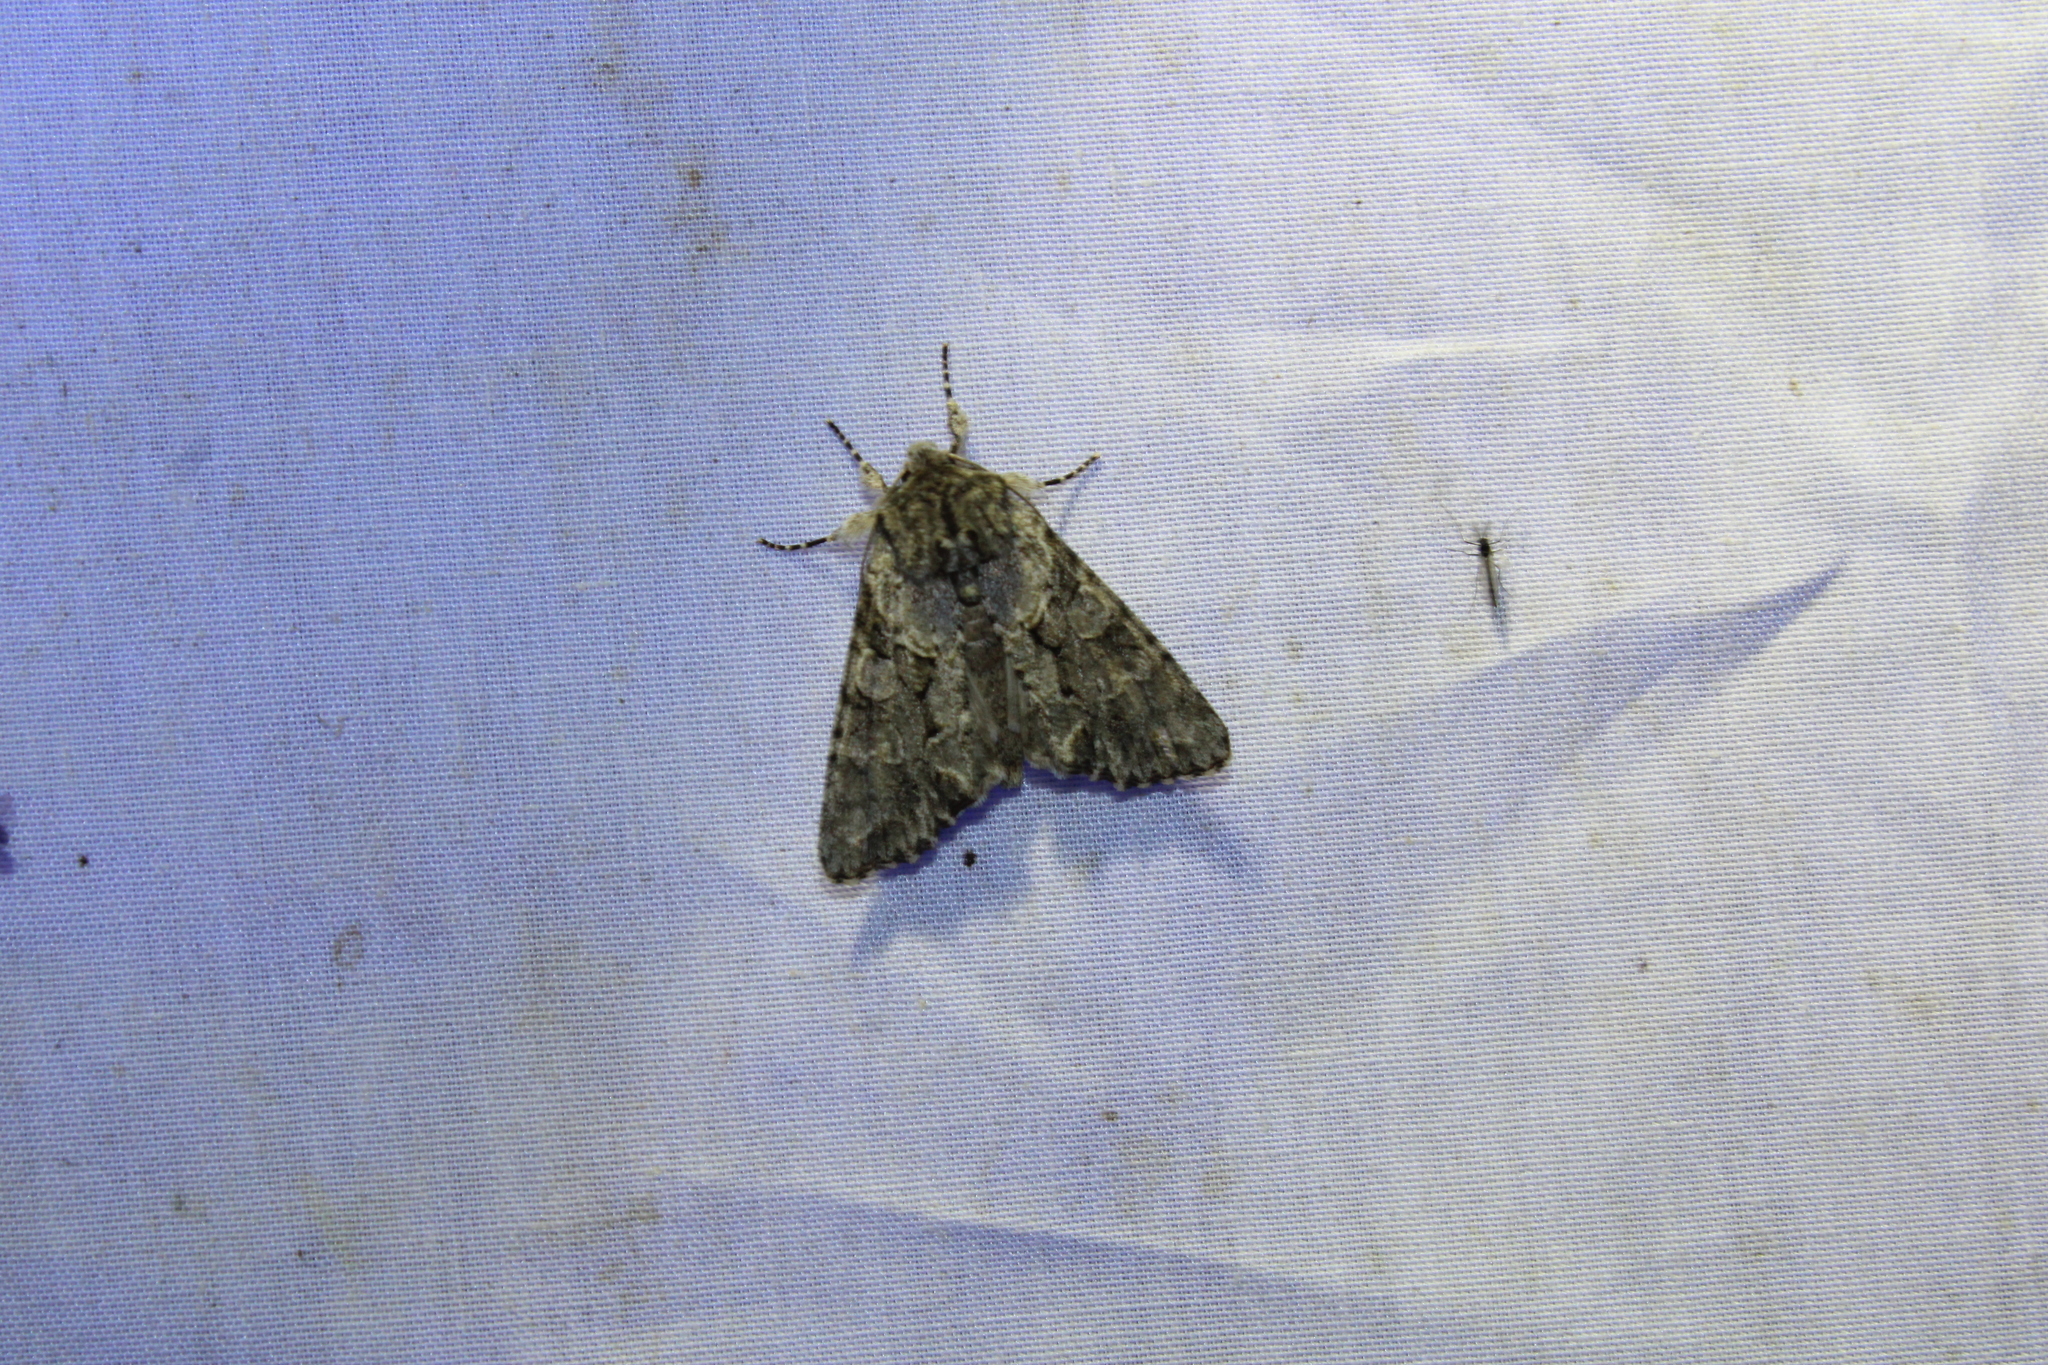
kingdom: Animalia
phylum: Arthropoda
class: Insecta
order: Lepidoptera
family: Noctuidae
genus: Achatia
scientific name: Achatia distincta
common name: Distinct quaker
